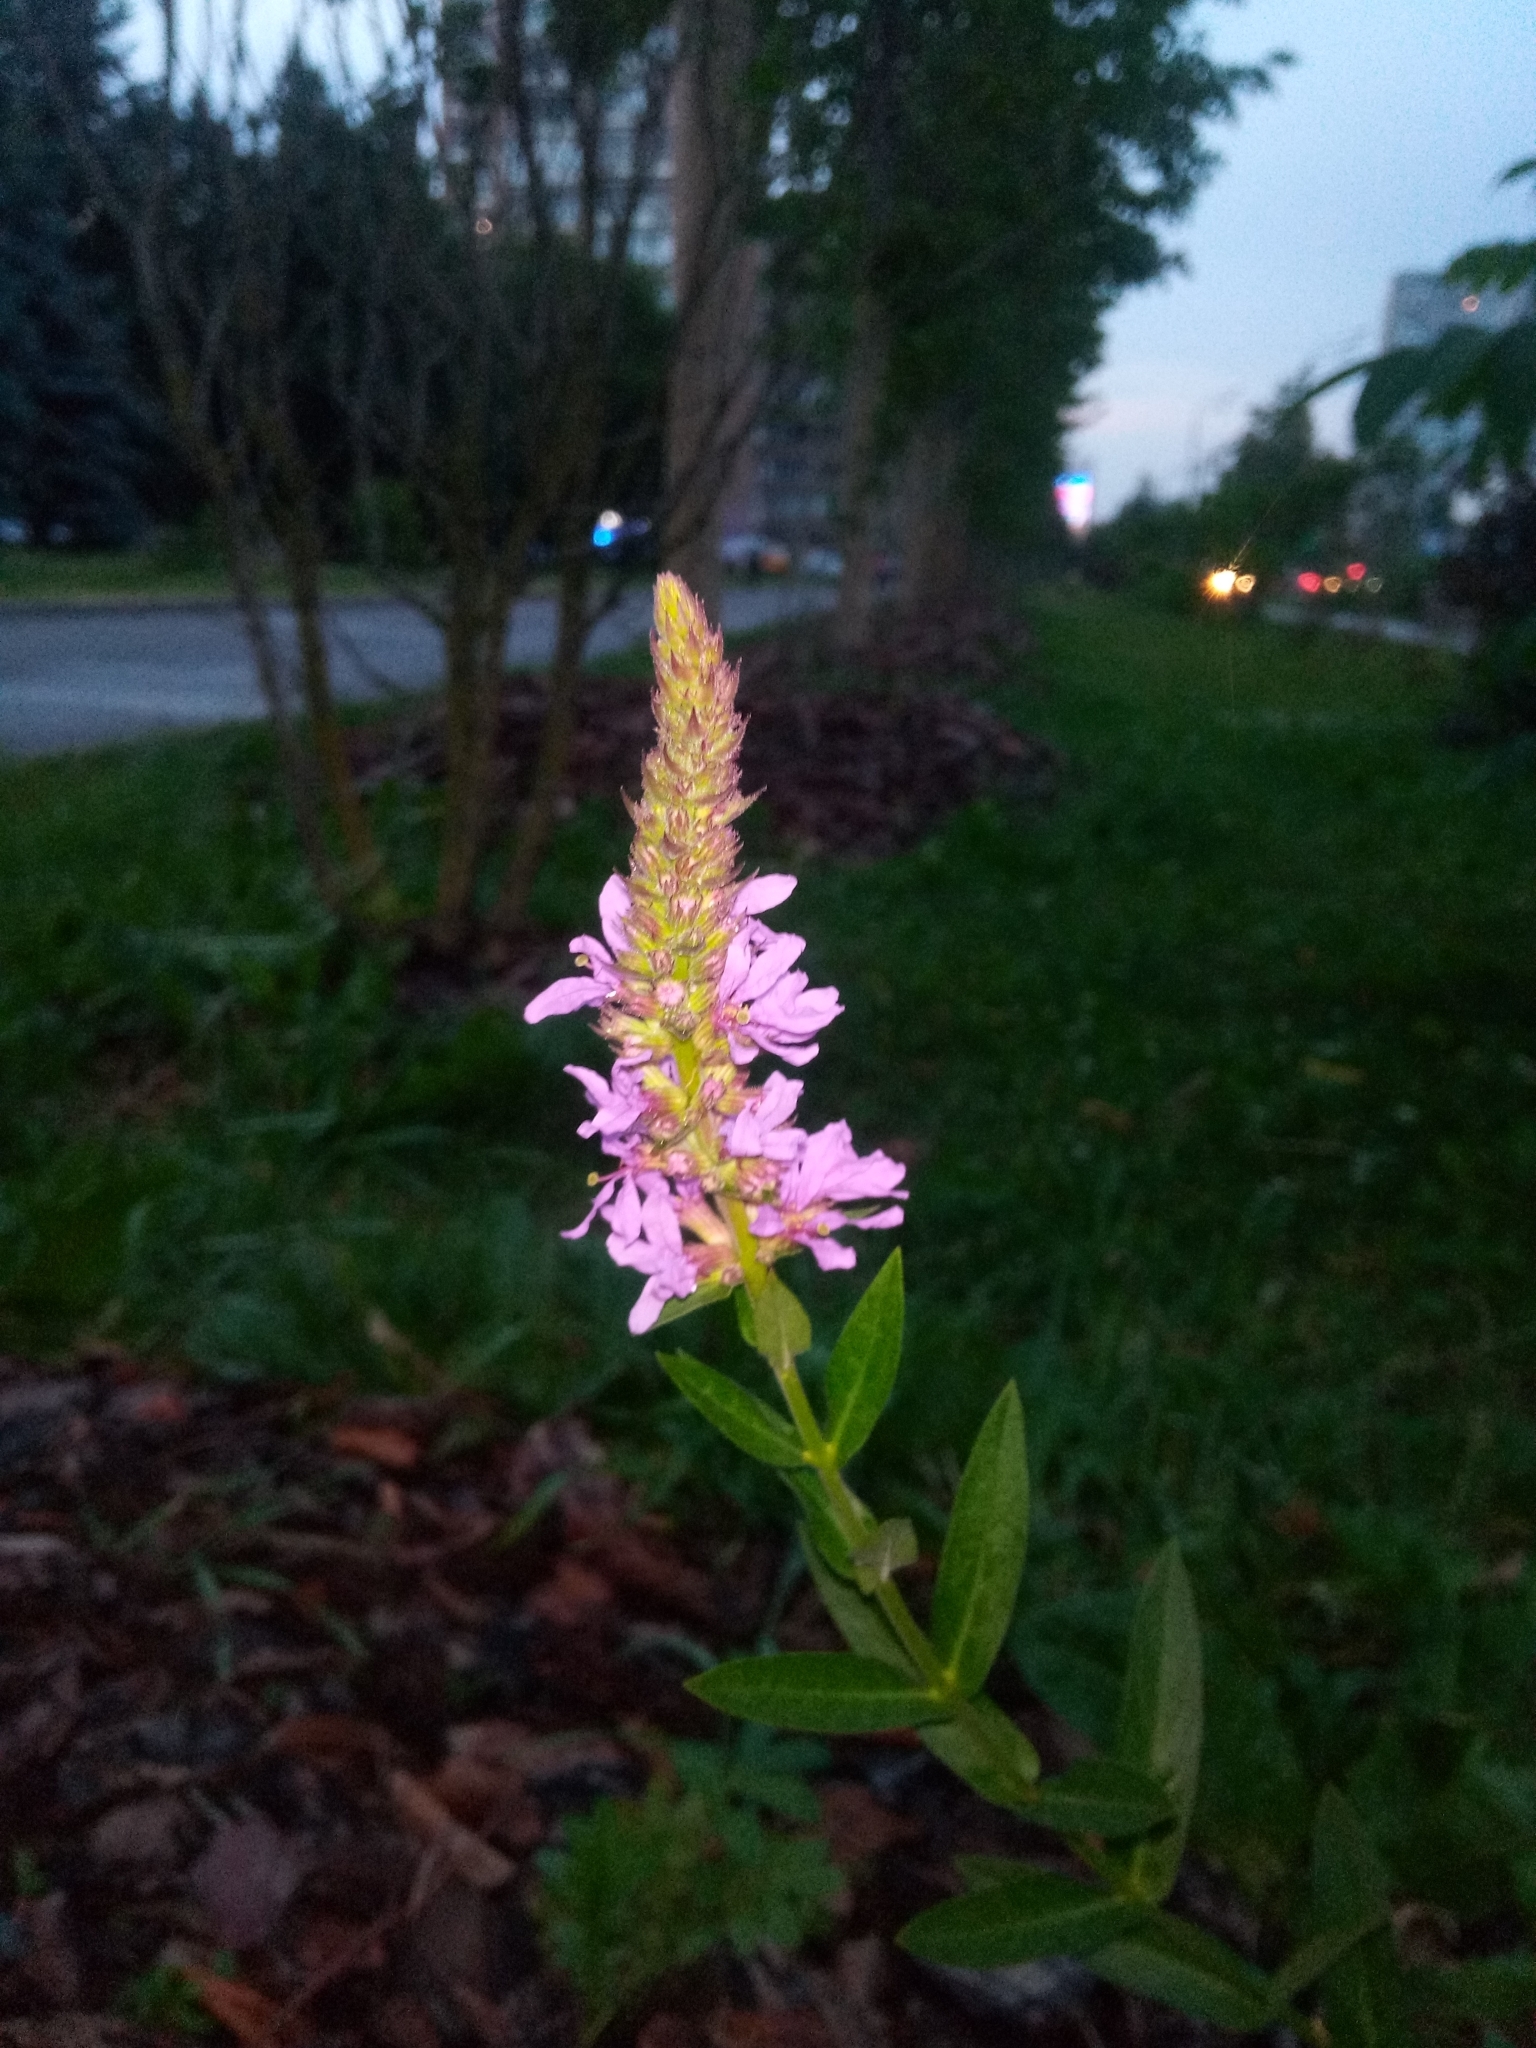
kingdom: Plantae
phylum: Tracheophyta
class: Magnoliopsida
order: Myrtales
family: Lythraceae
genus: Lythrum
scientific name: Lythrum salicaria
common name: Purple loosestrife
